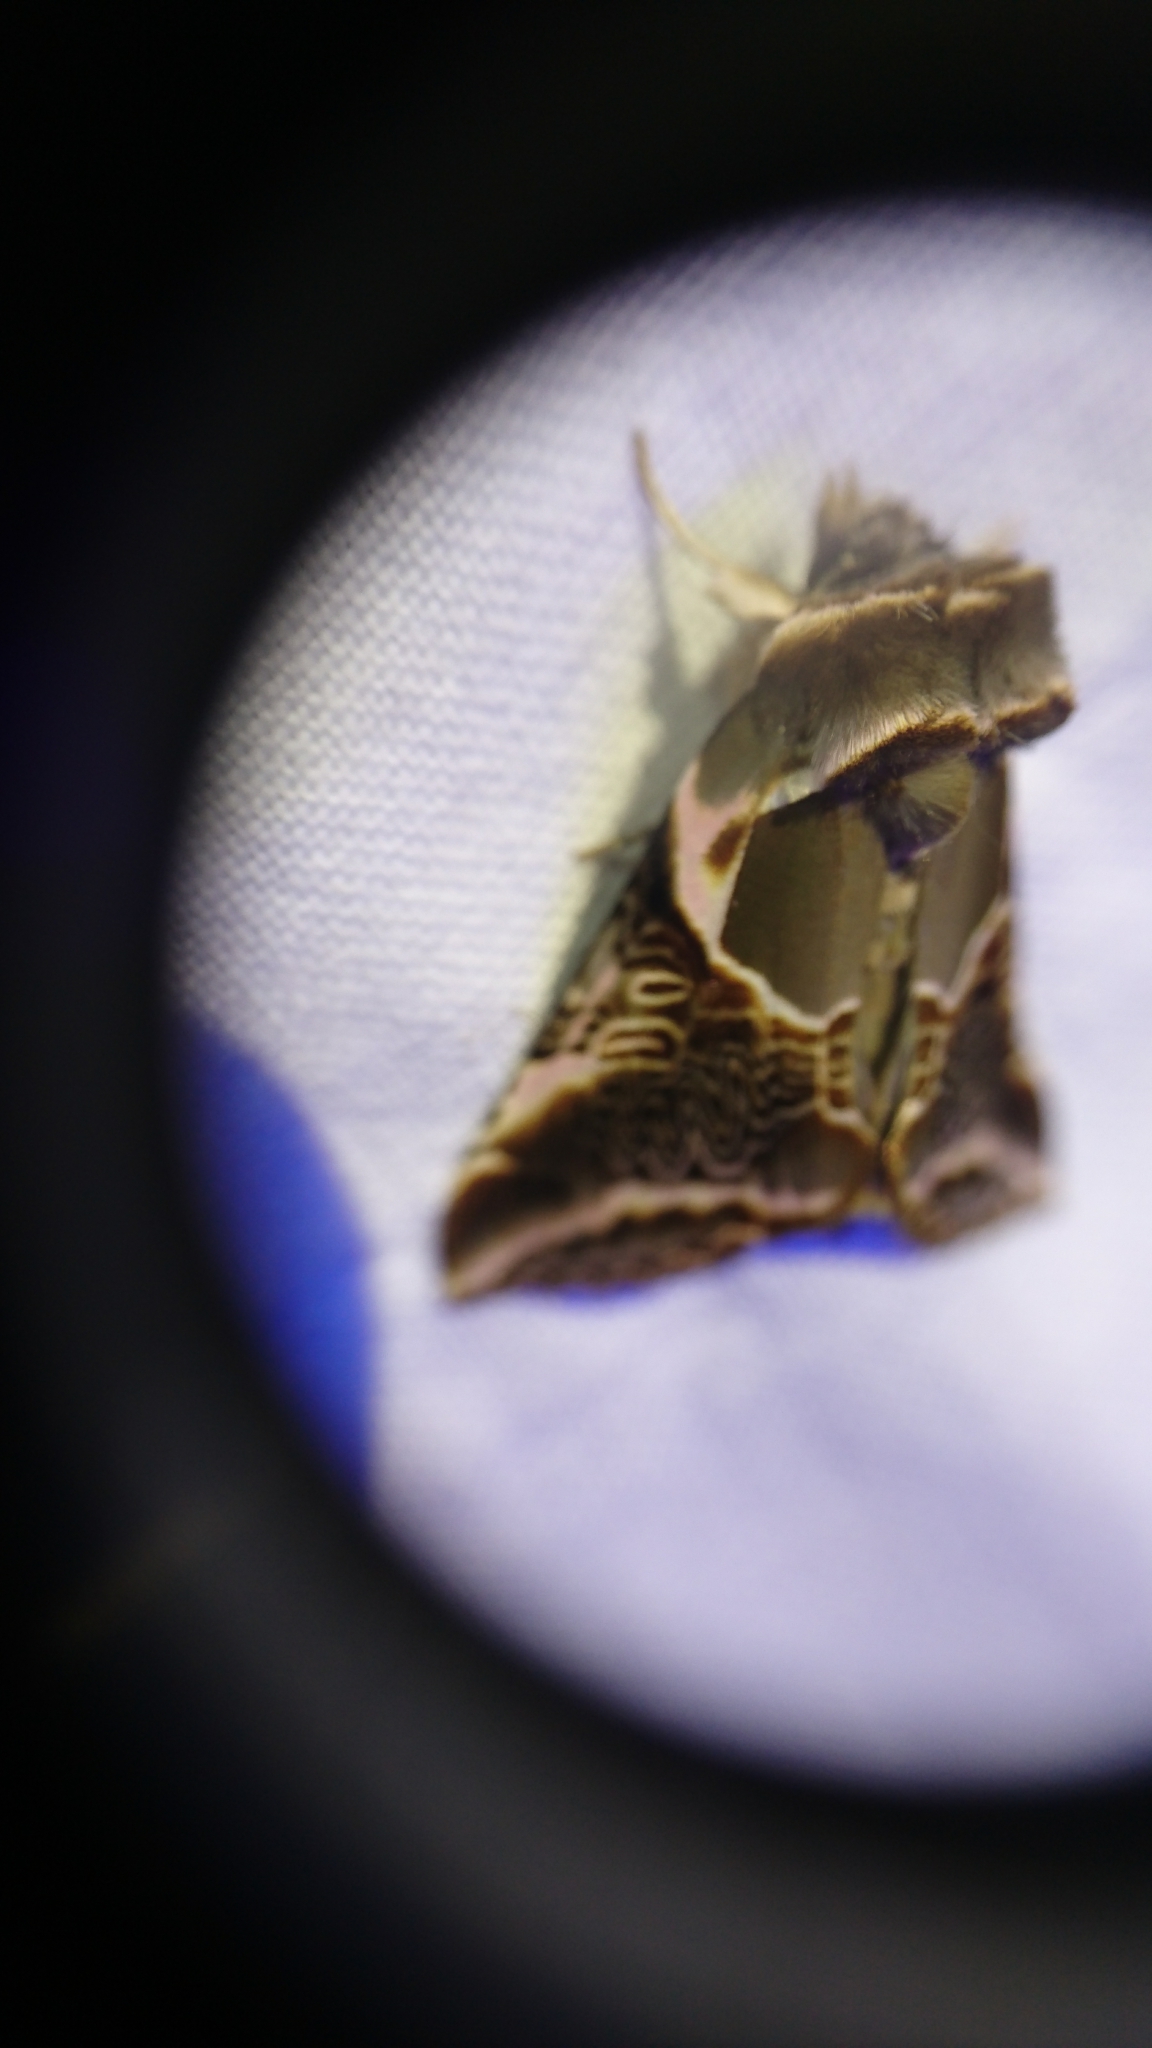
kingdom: Animalia
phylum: Arthropoda
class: Insecta
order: Lepidoptera
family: Drepanidae
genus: Habrosyne
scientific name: Habrosyne scripta
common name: Lettered habrosyne moth
